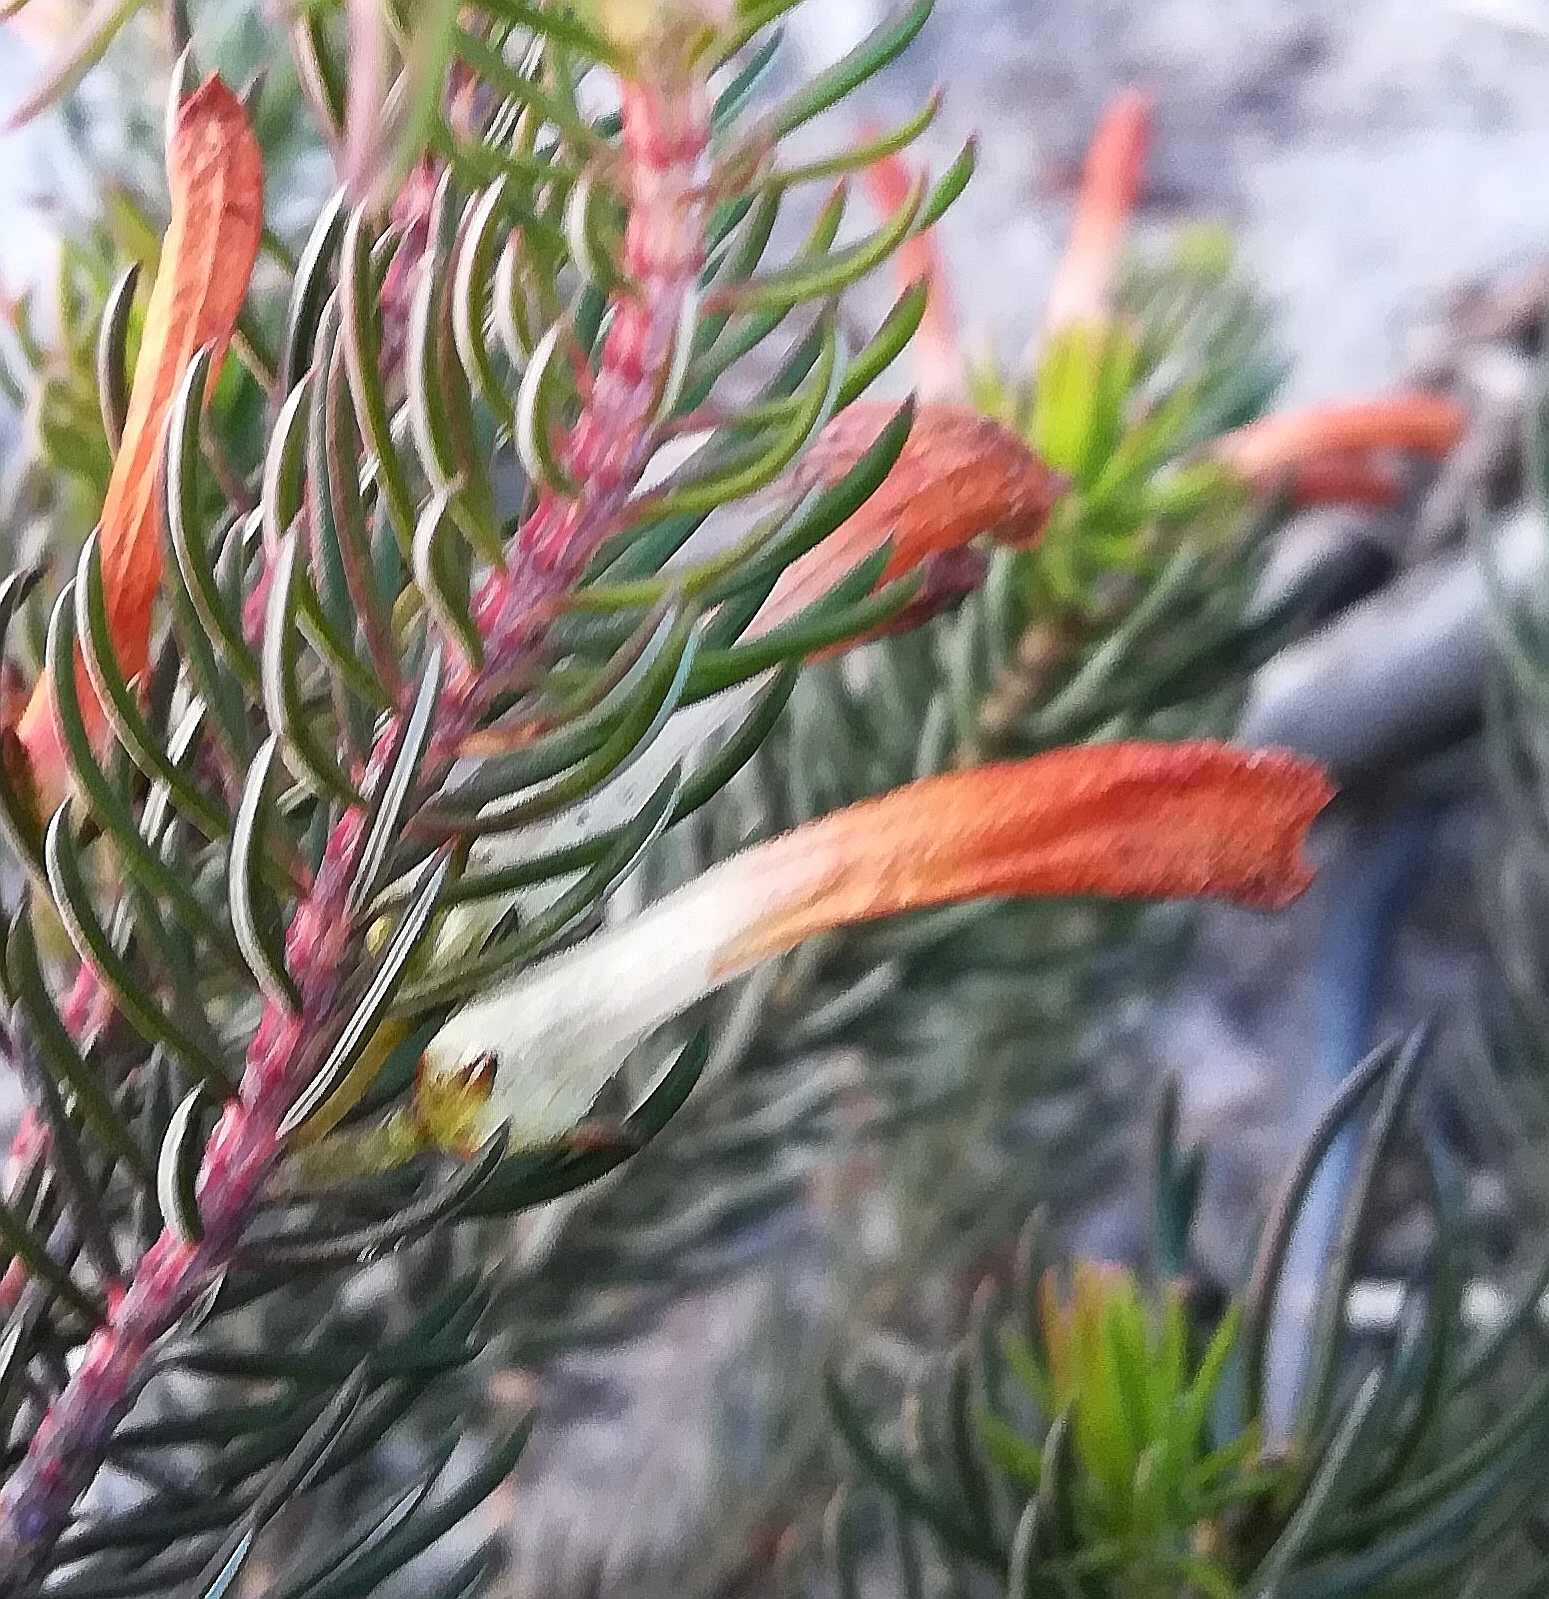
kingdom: Plantae
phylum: Tracheophyta
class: Magnoliopsida
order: Ericales
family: Ericaceae
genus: Erica
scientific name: Erica thomae
